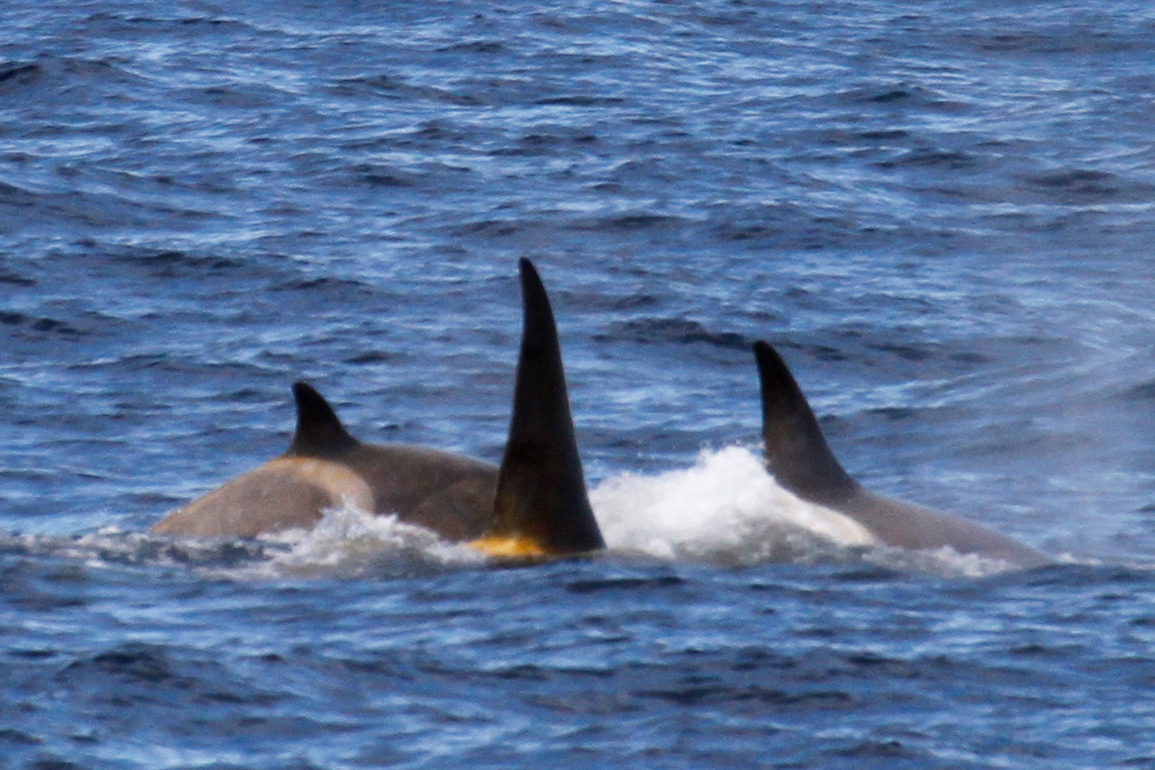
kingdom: Animalia
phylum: Chordata
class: Mammalia
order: Cetacea
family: Delphinidae
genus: Orcinus
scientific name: Orcinus orca
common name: Killer whale
